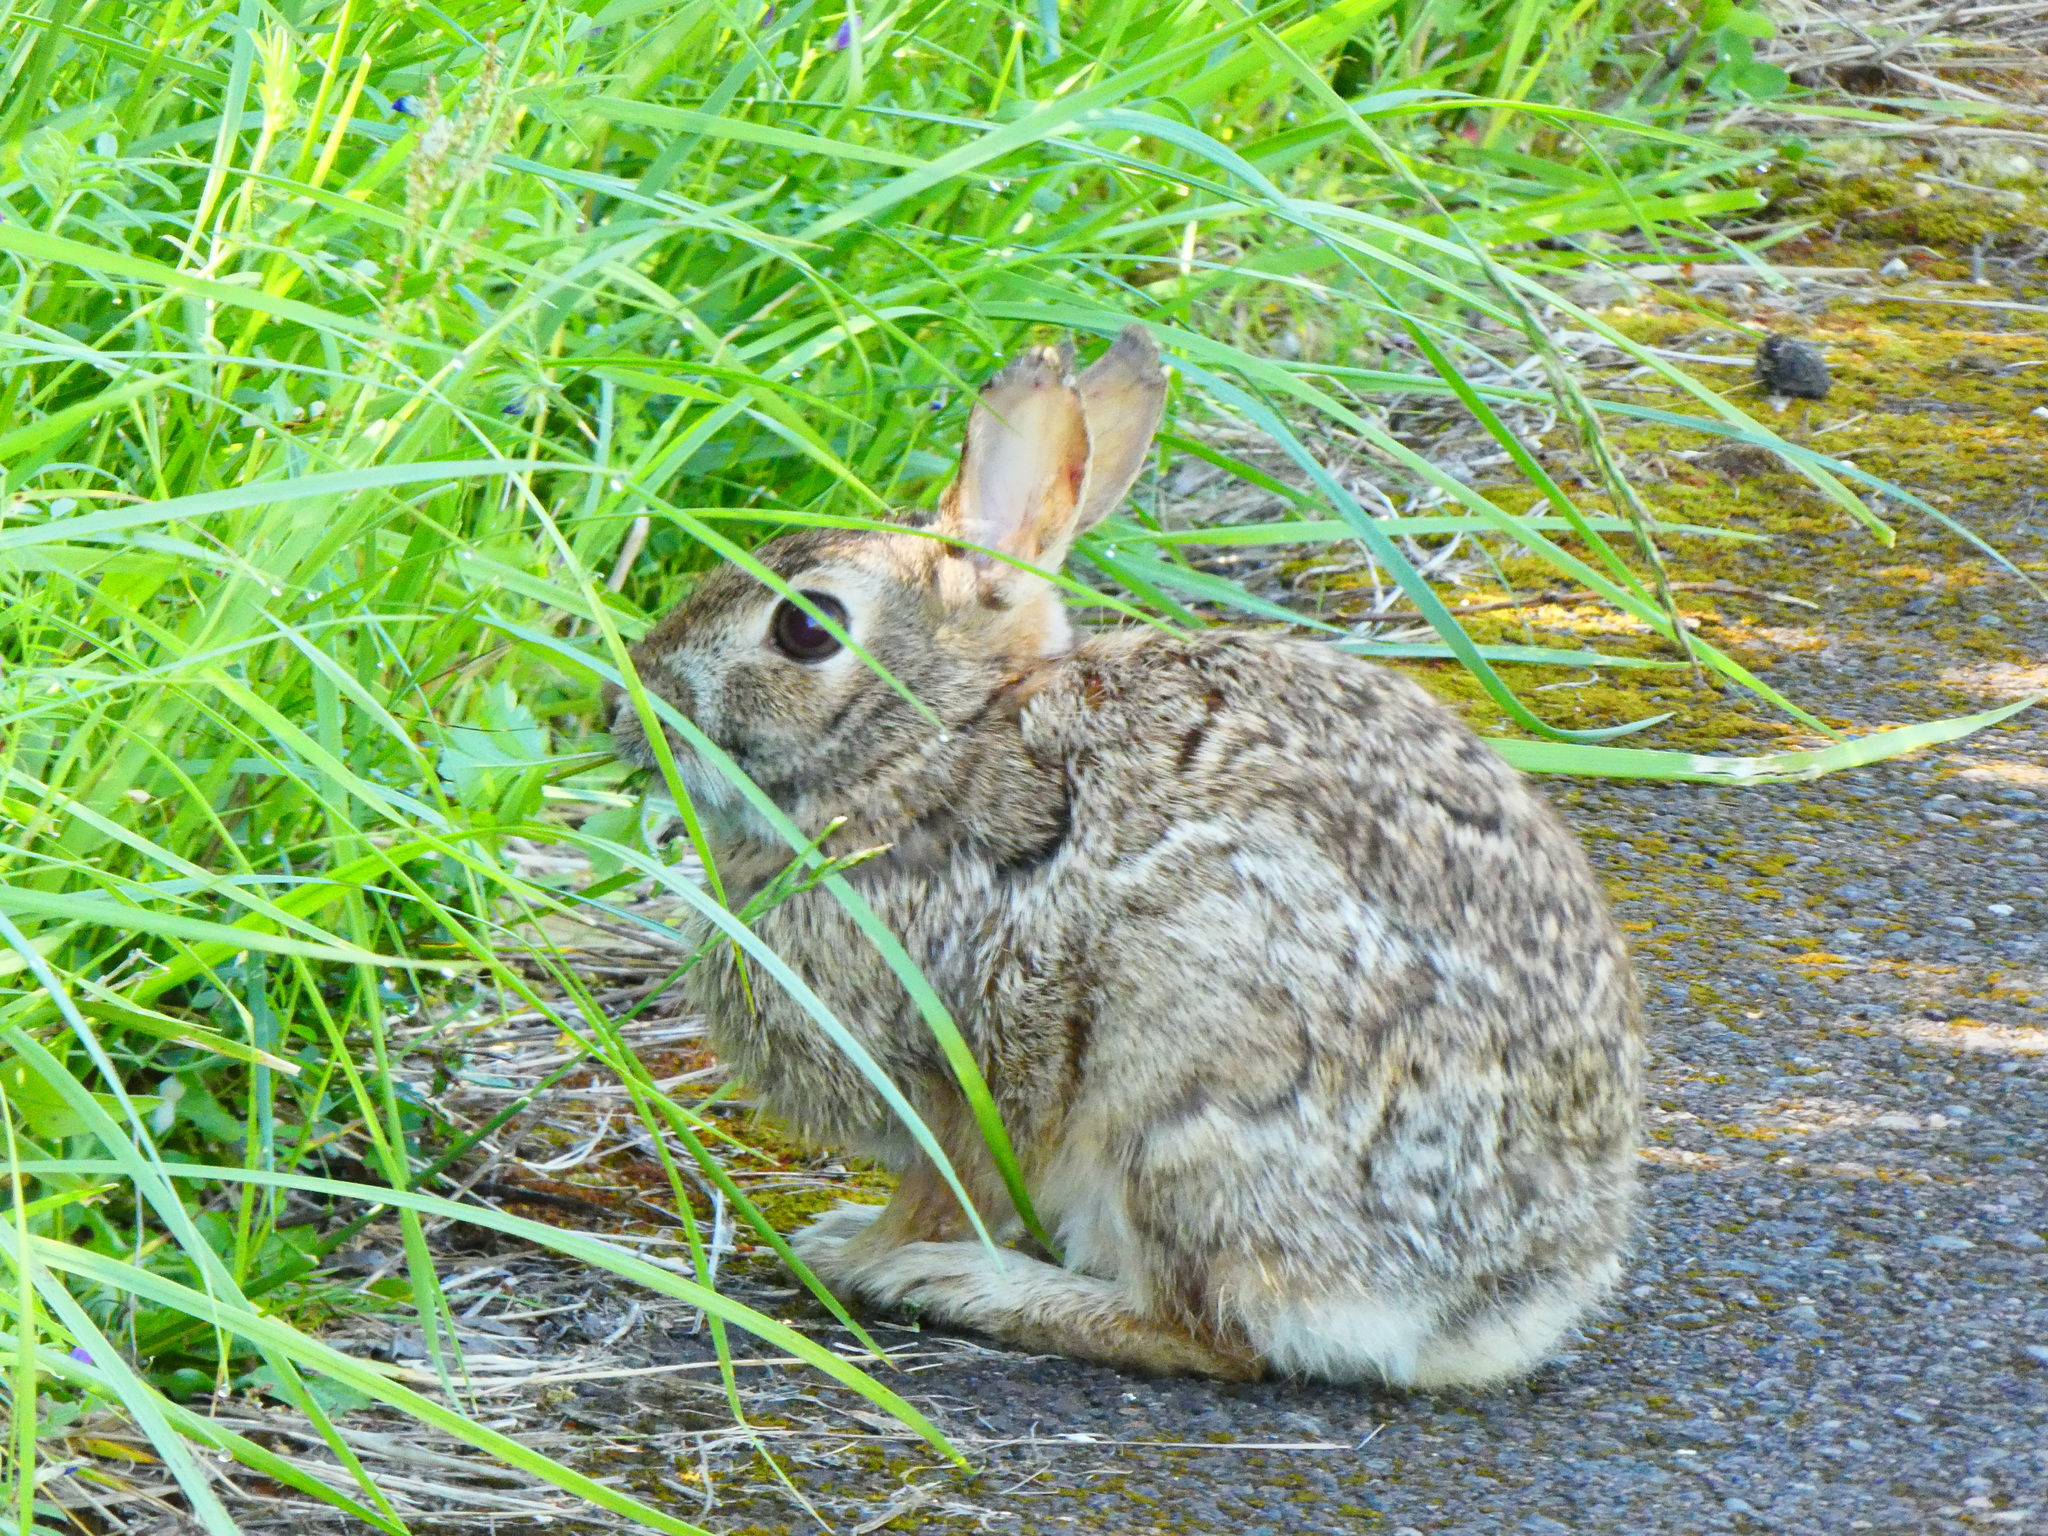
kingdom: Animalia
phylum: Chordata
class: Mammalia
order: Lagomorpha
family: Leporidae
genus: Sylvilagus
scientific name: Sylvilagus
